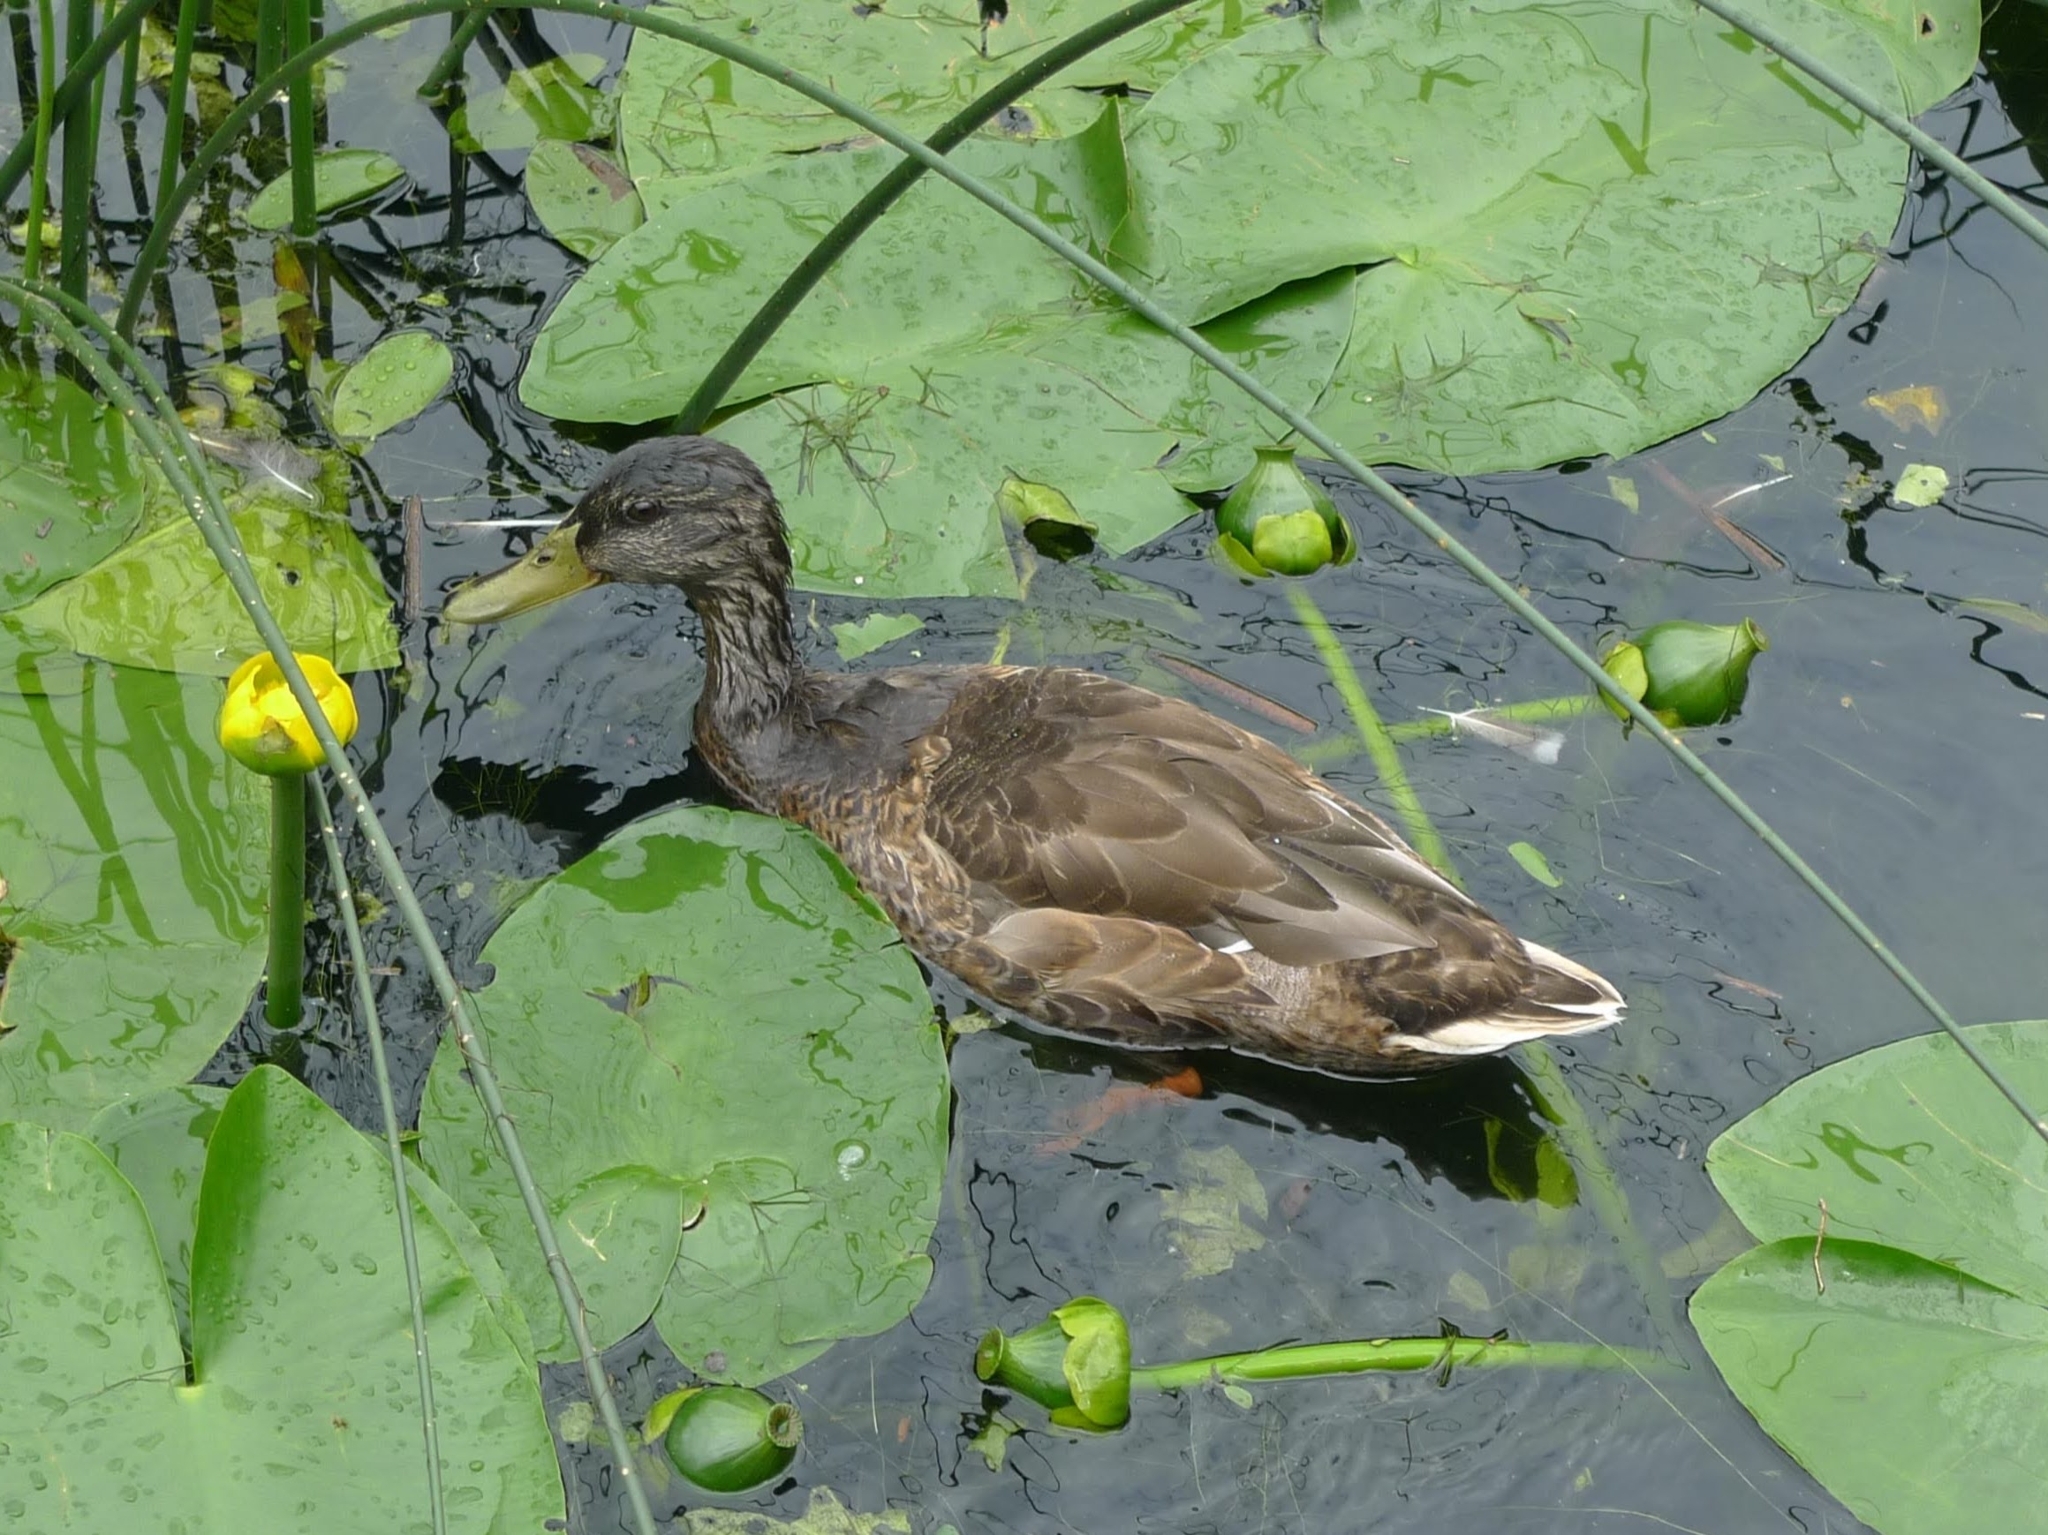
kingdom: Animalia
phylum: Chordata
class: Aves
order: Anseriformes
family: Anatidae
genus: Anas
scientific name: Anas platyrhynchos
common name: Mallard
